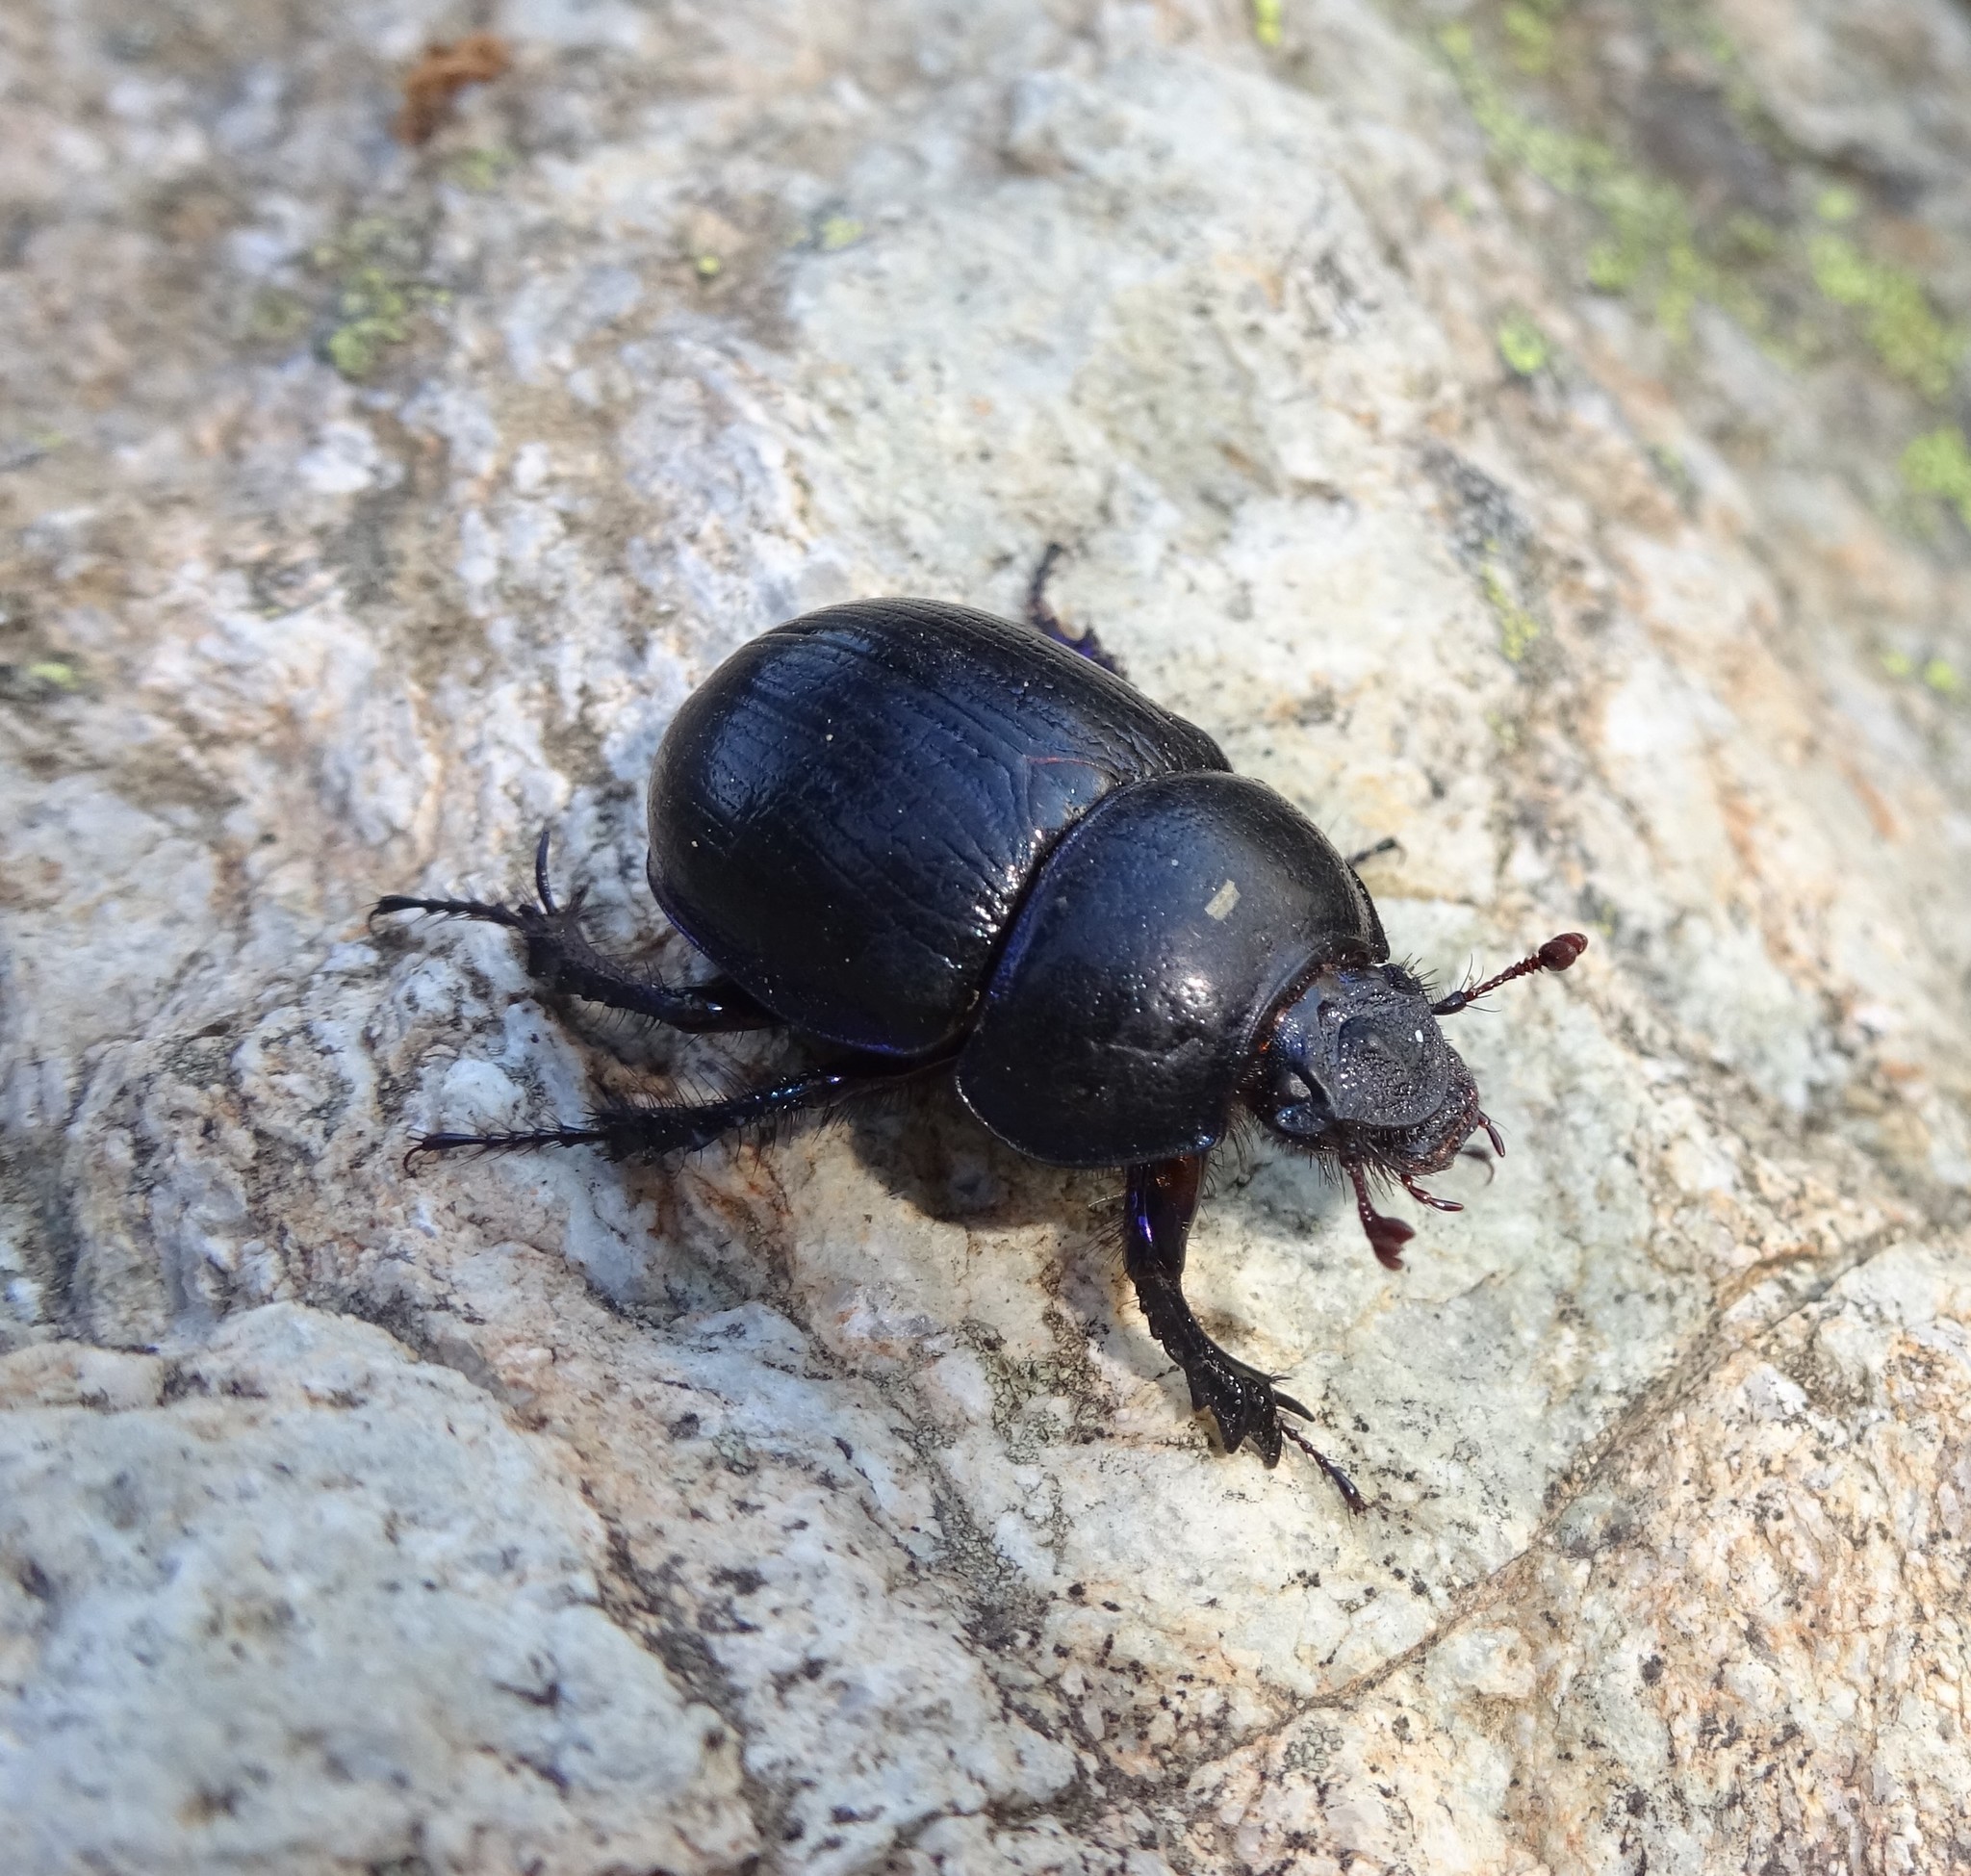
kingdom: Animalia
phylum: Arthropoda
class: Insecta
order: Coleoptera
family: Geotrupidae
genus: Anoplotrupes
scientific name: Anoplotrupes stercorosus
